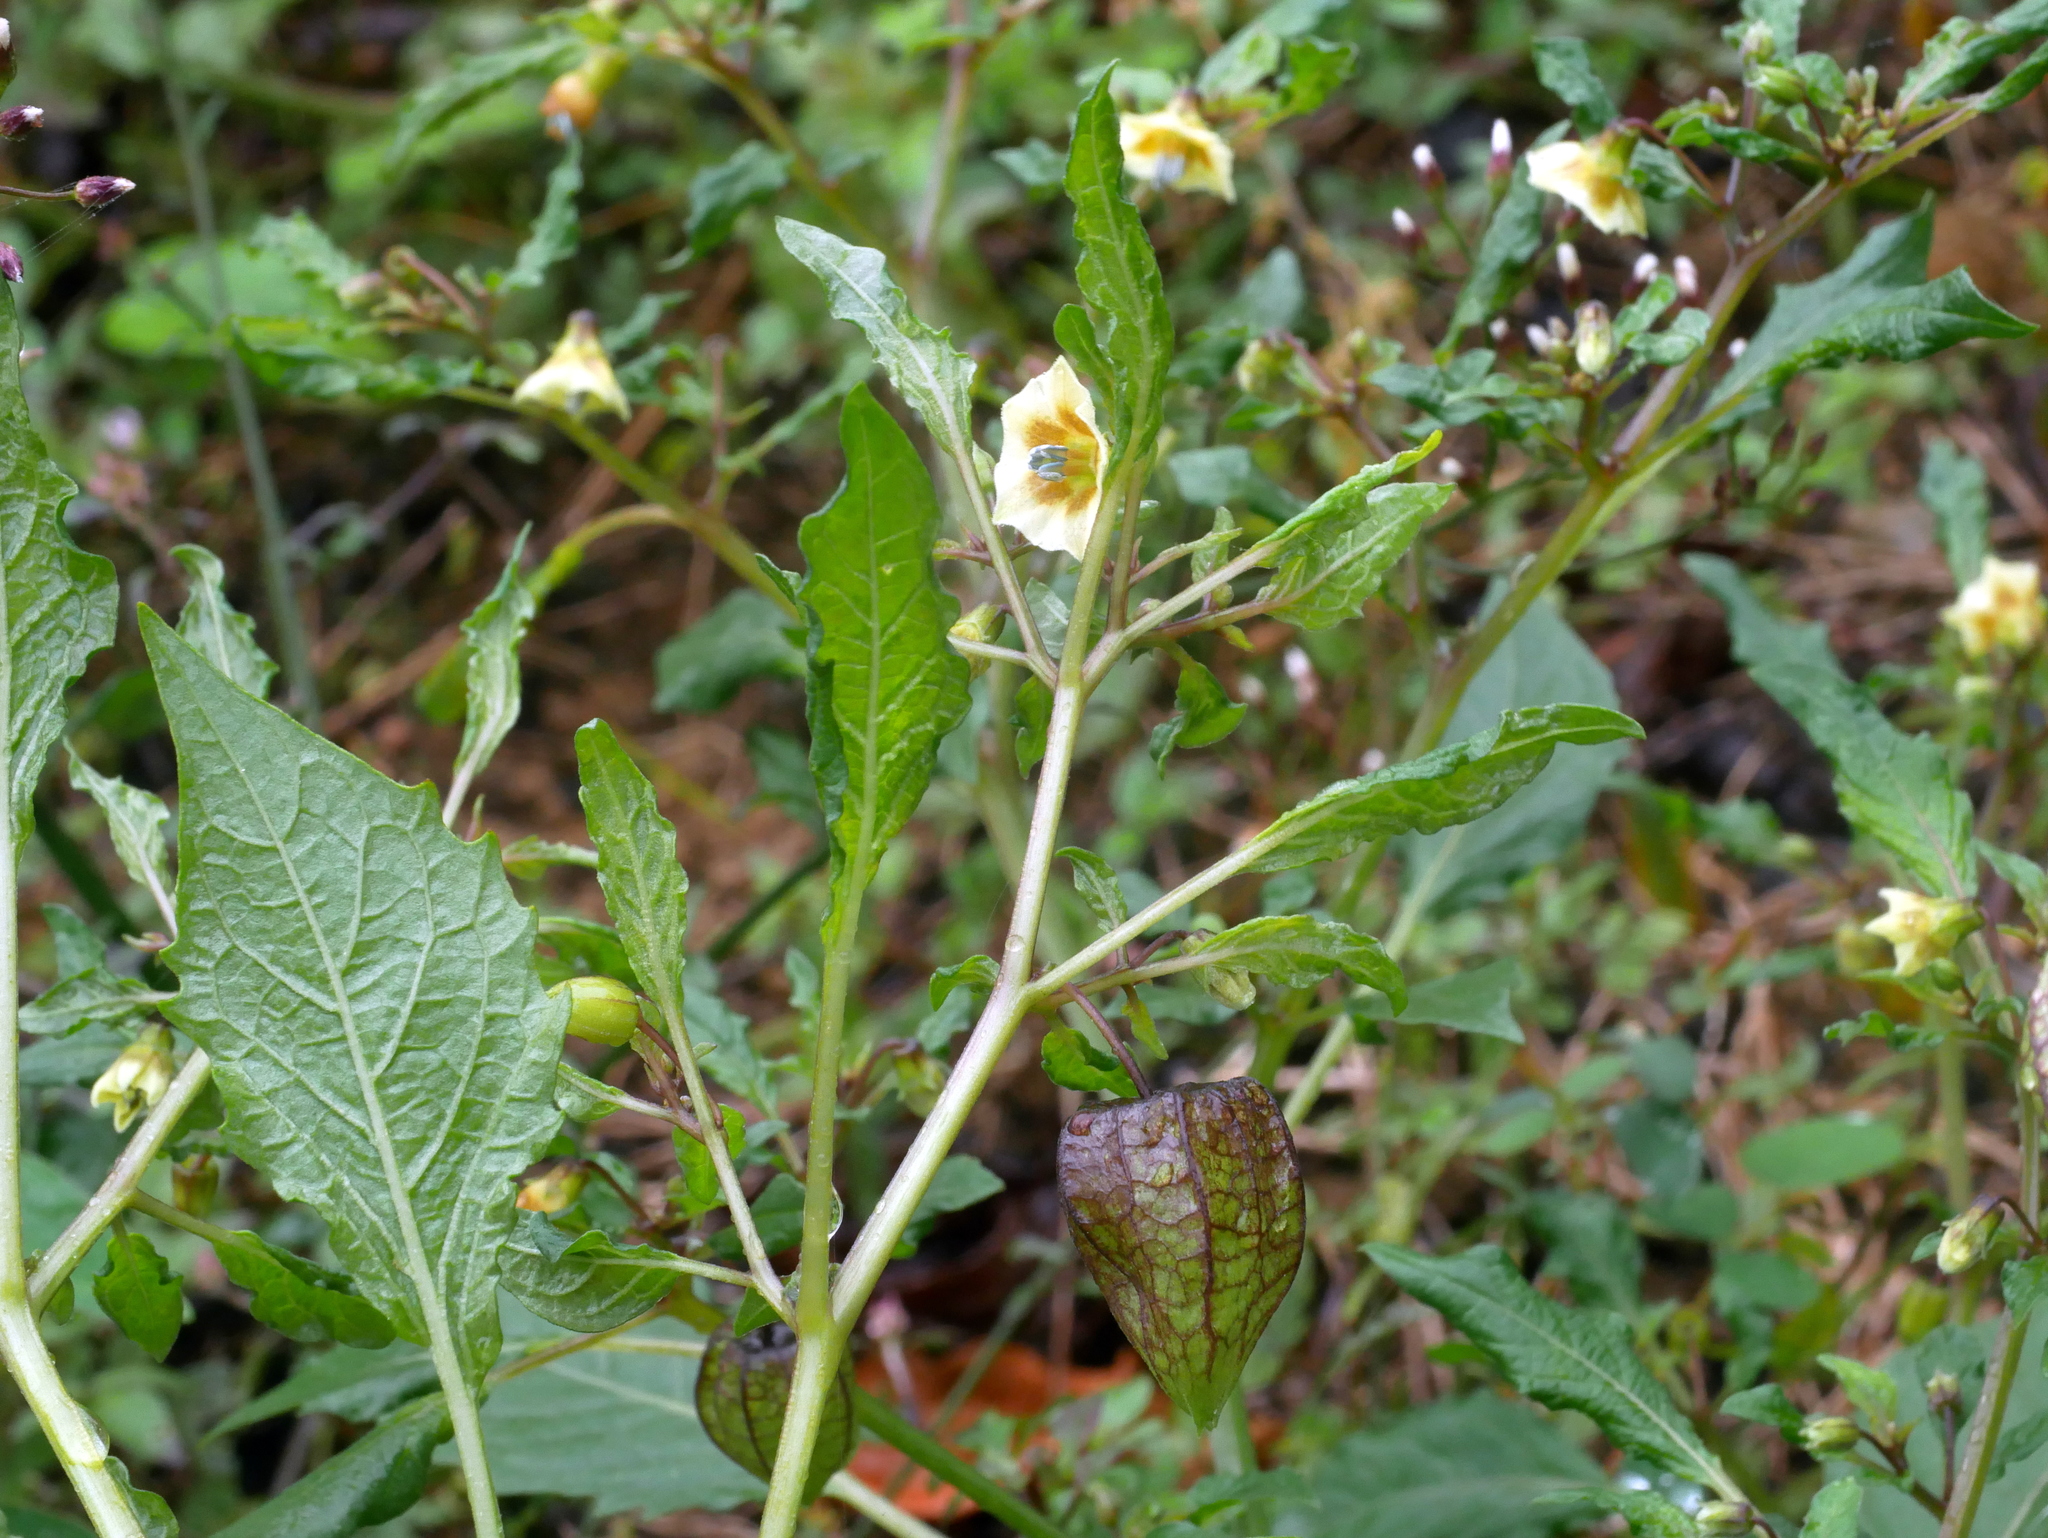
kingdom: Plantae
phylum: Tracheophyta
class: Magnoliopsida
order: Solanales
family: Solanaceae
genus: Physalis
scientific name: Physalis angulata
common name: Angular winter-cherry
